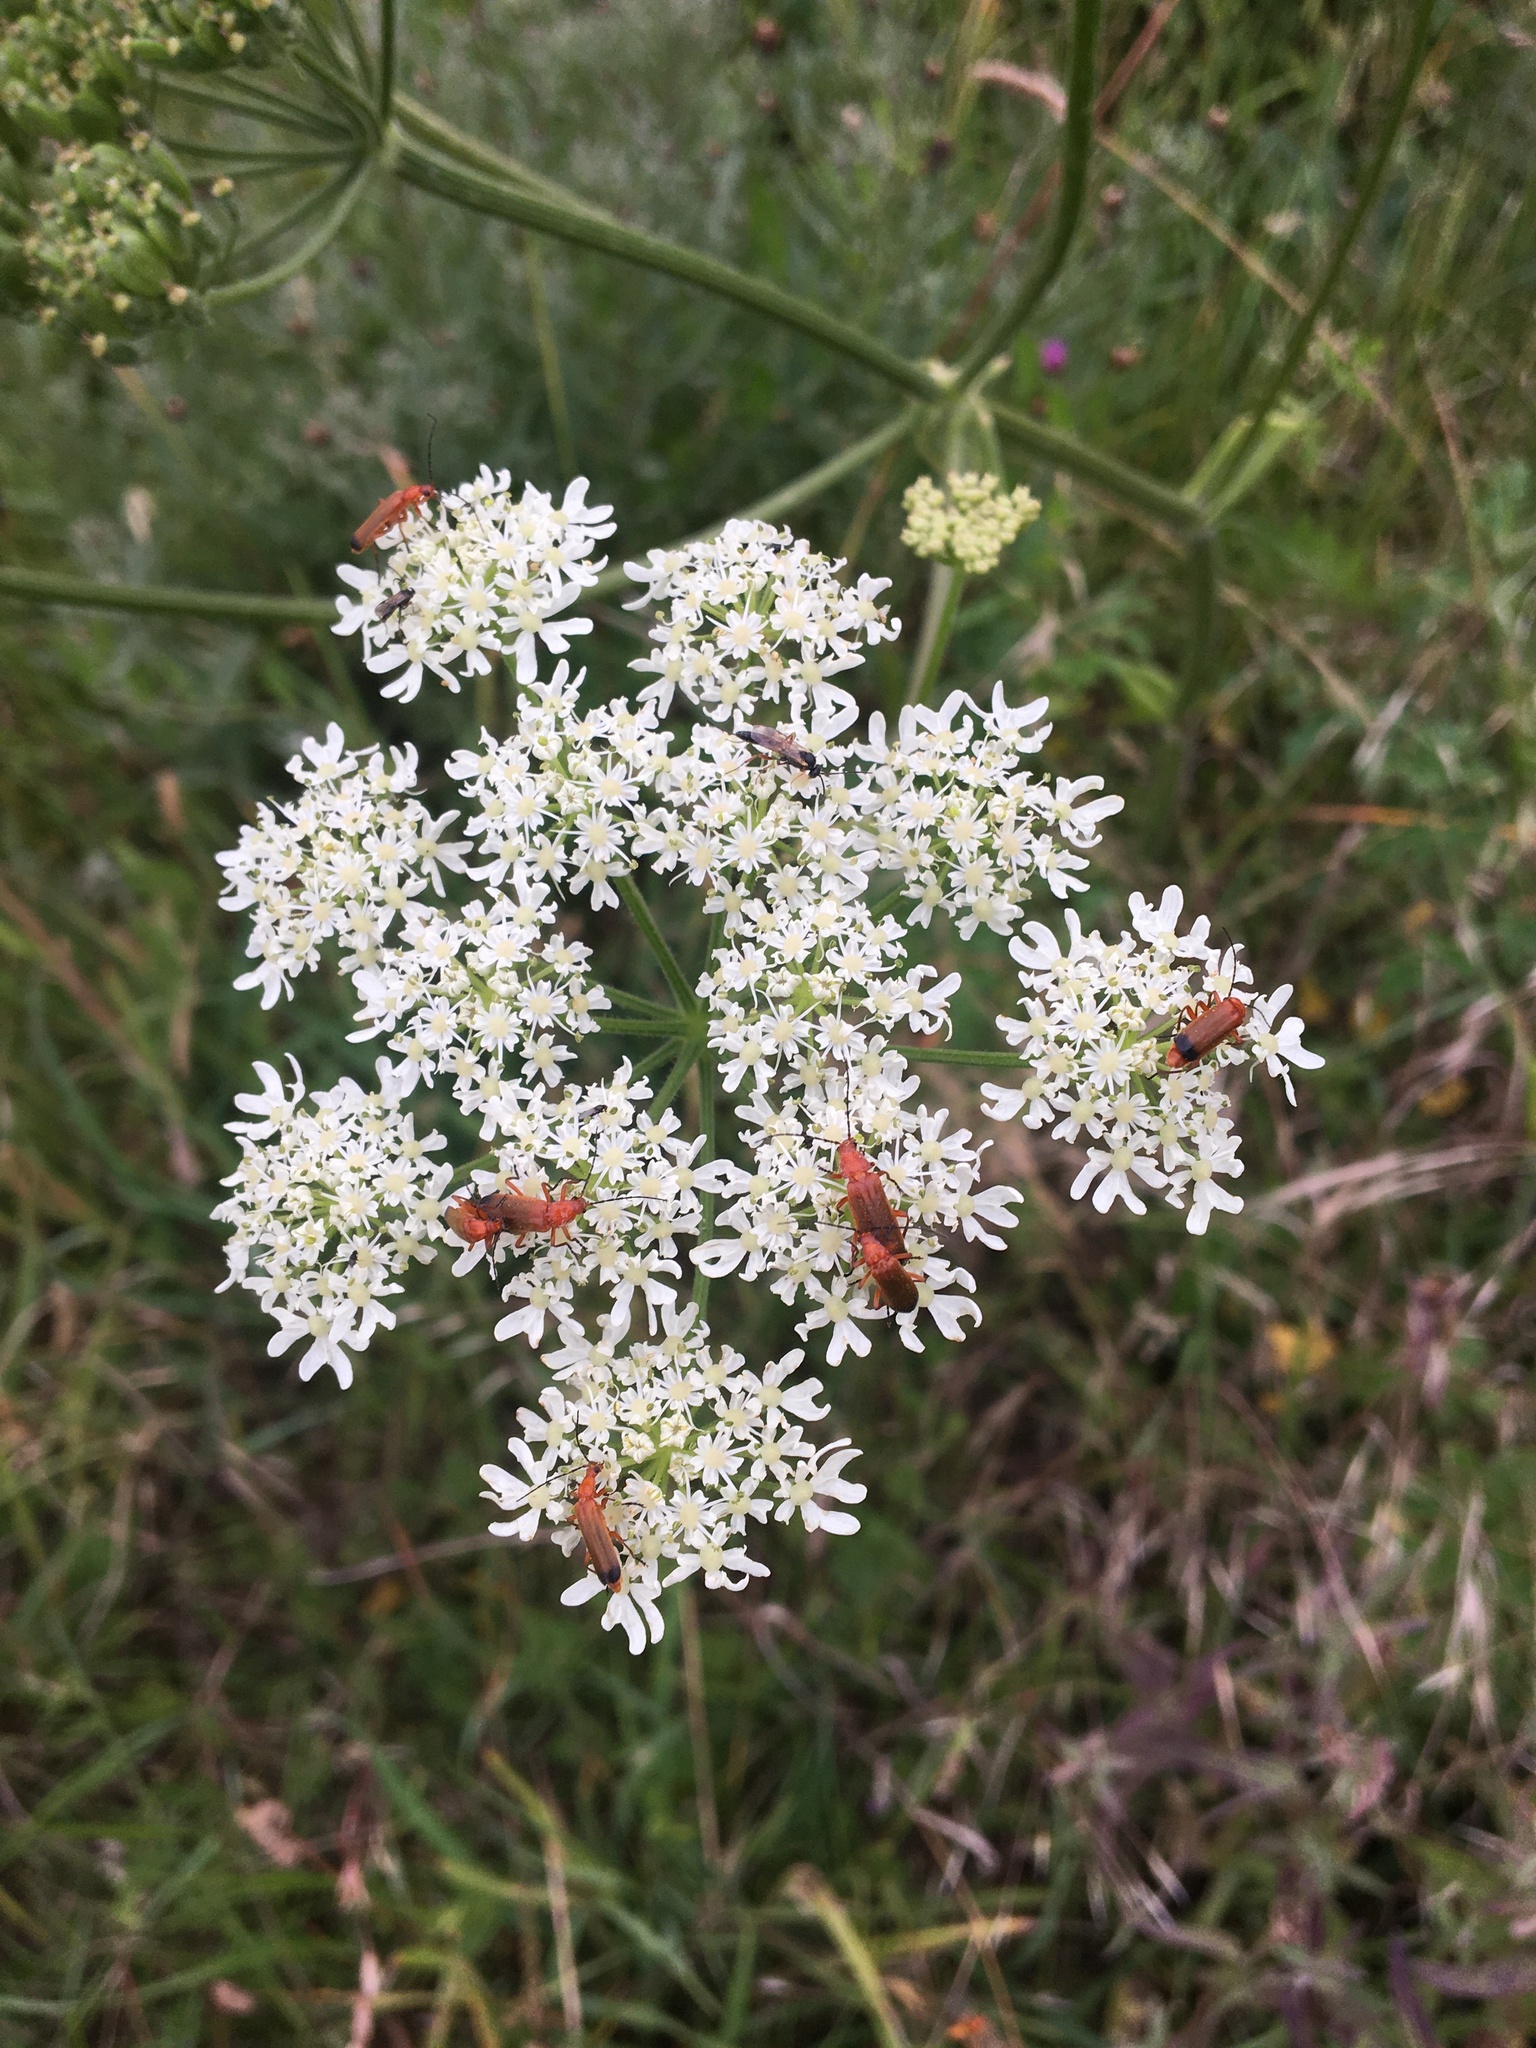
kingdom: Animalia
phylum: Arthropoda
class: Insecta
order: Coleoptera
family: Cantharidae
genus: Rhagonycha
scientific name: Rhagonycha fulva
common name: Common red soldier beetle
